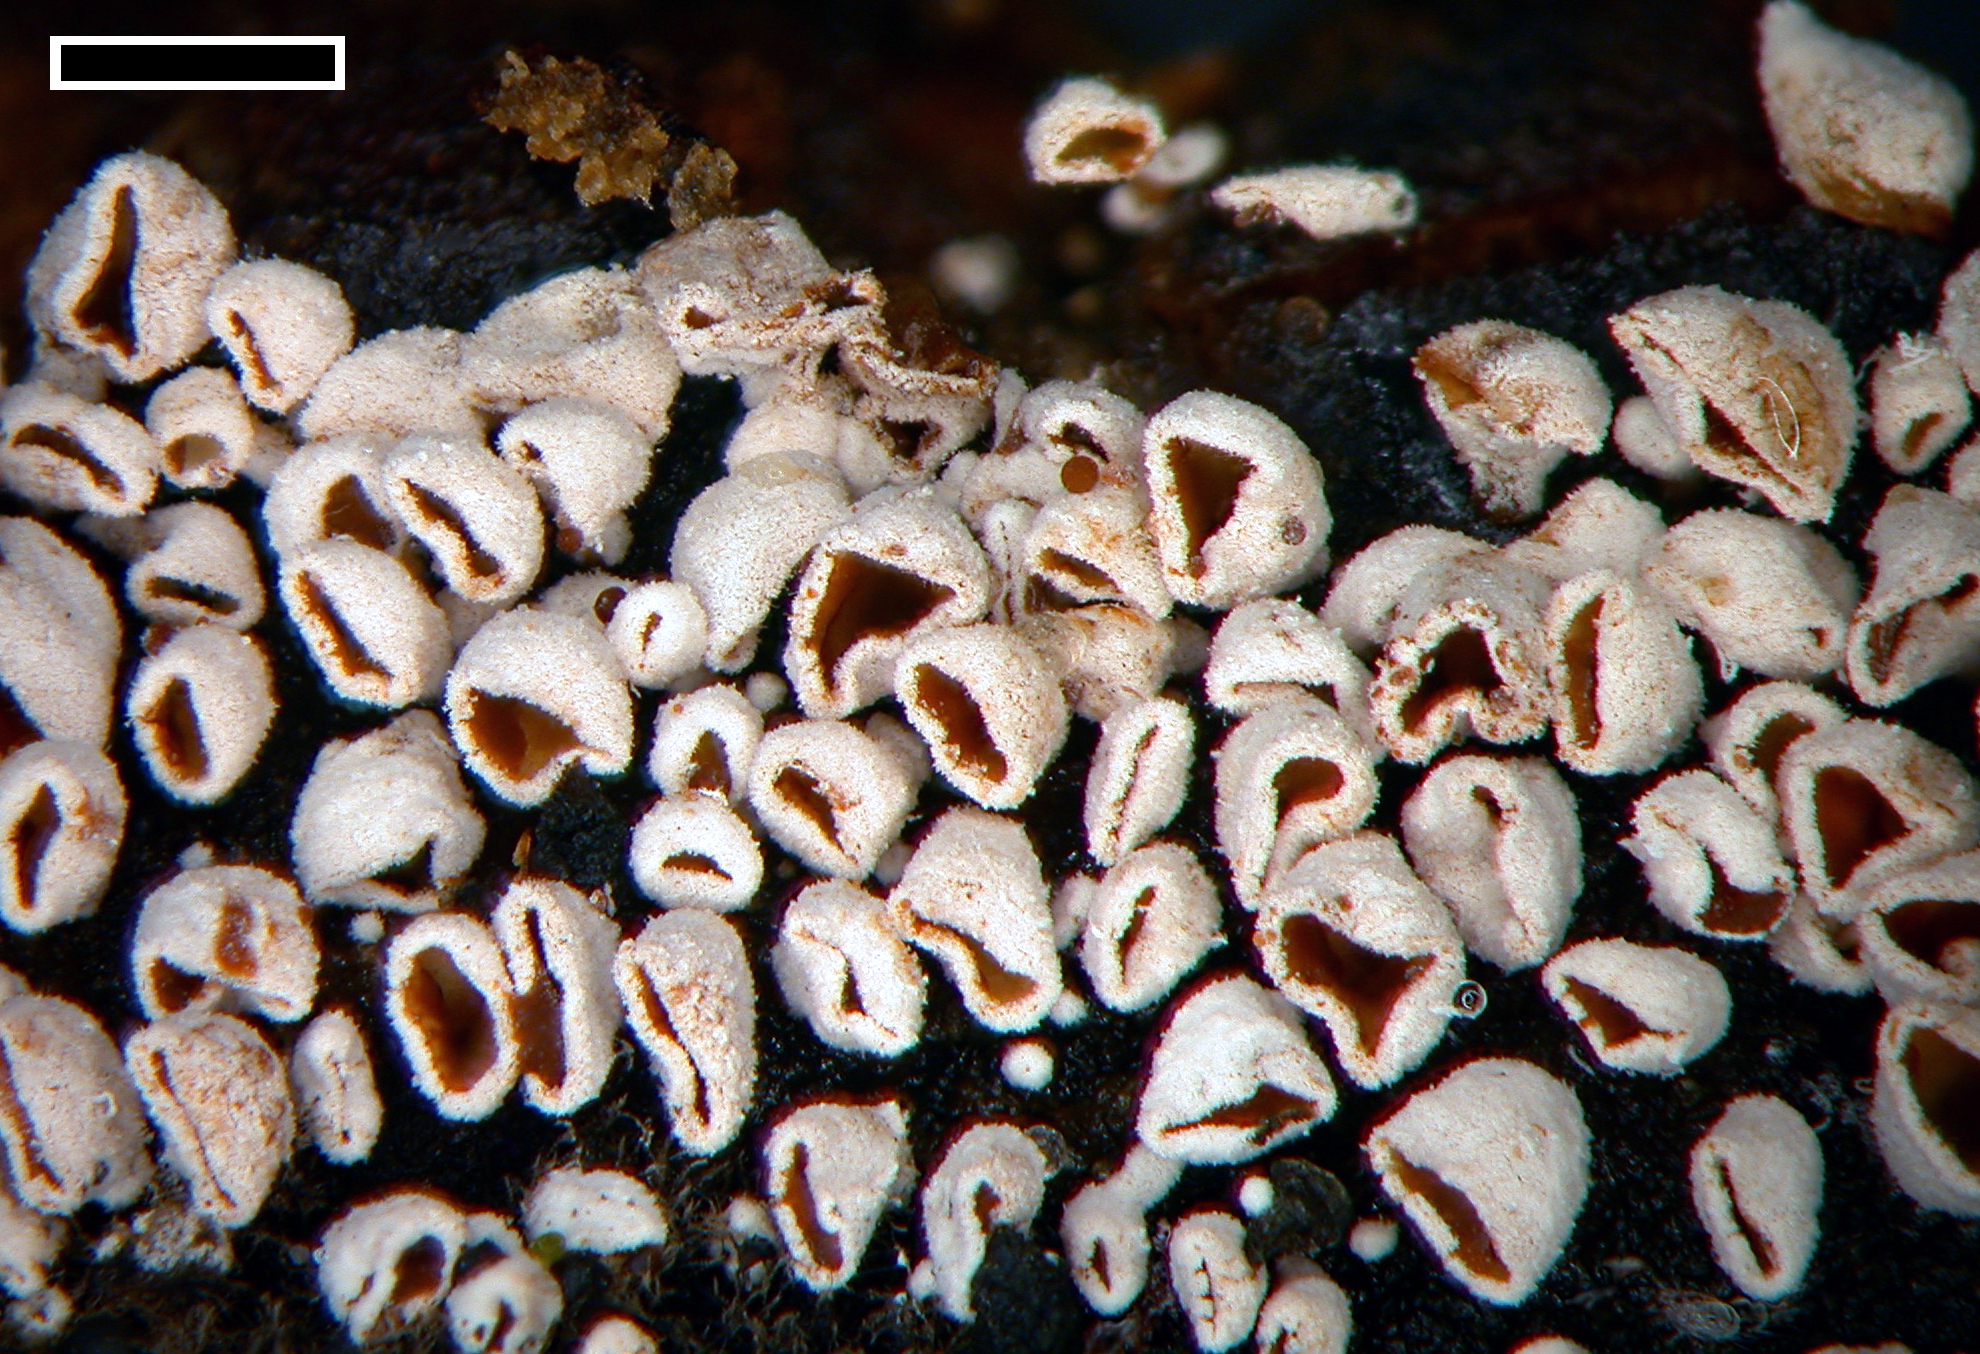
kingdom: Fungi
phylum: Basidiomycota
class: Agaricomycetes
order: Agaricales
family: Chromocyphellaceae
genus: Phaeosolenia
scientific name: Phaeosolenia densa
